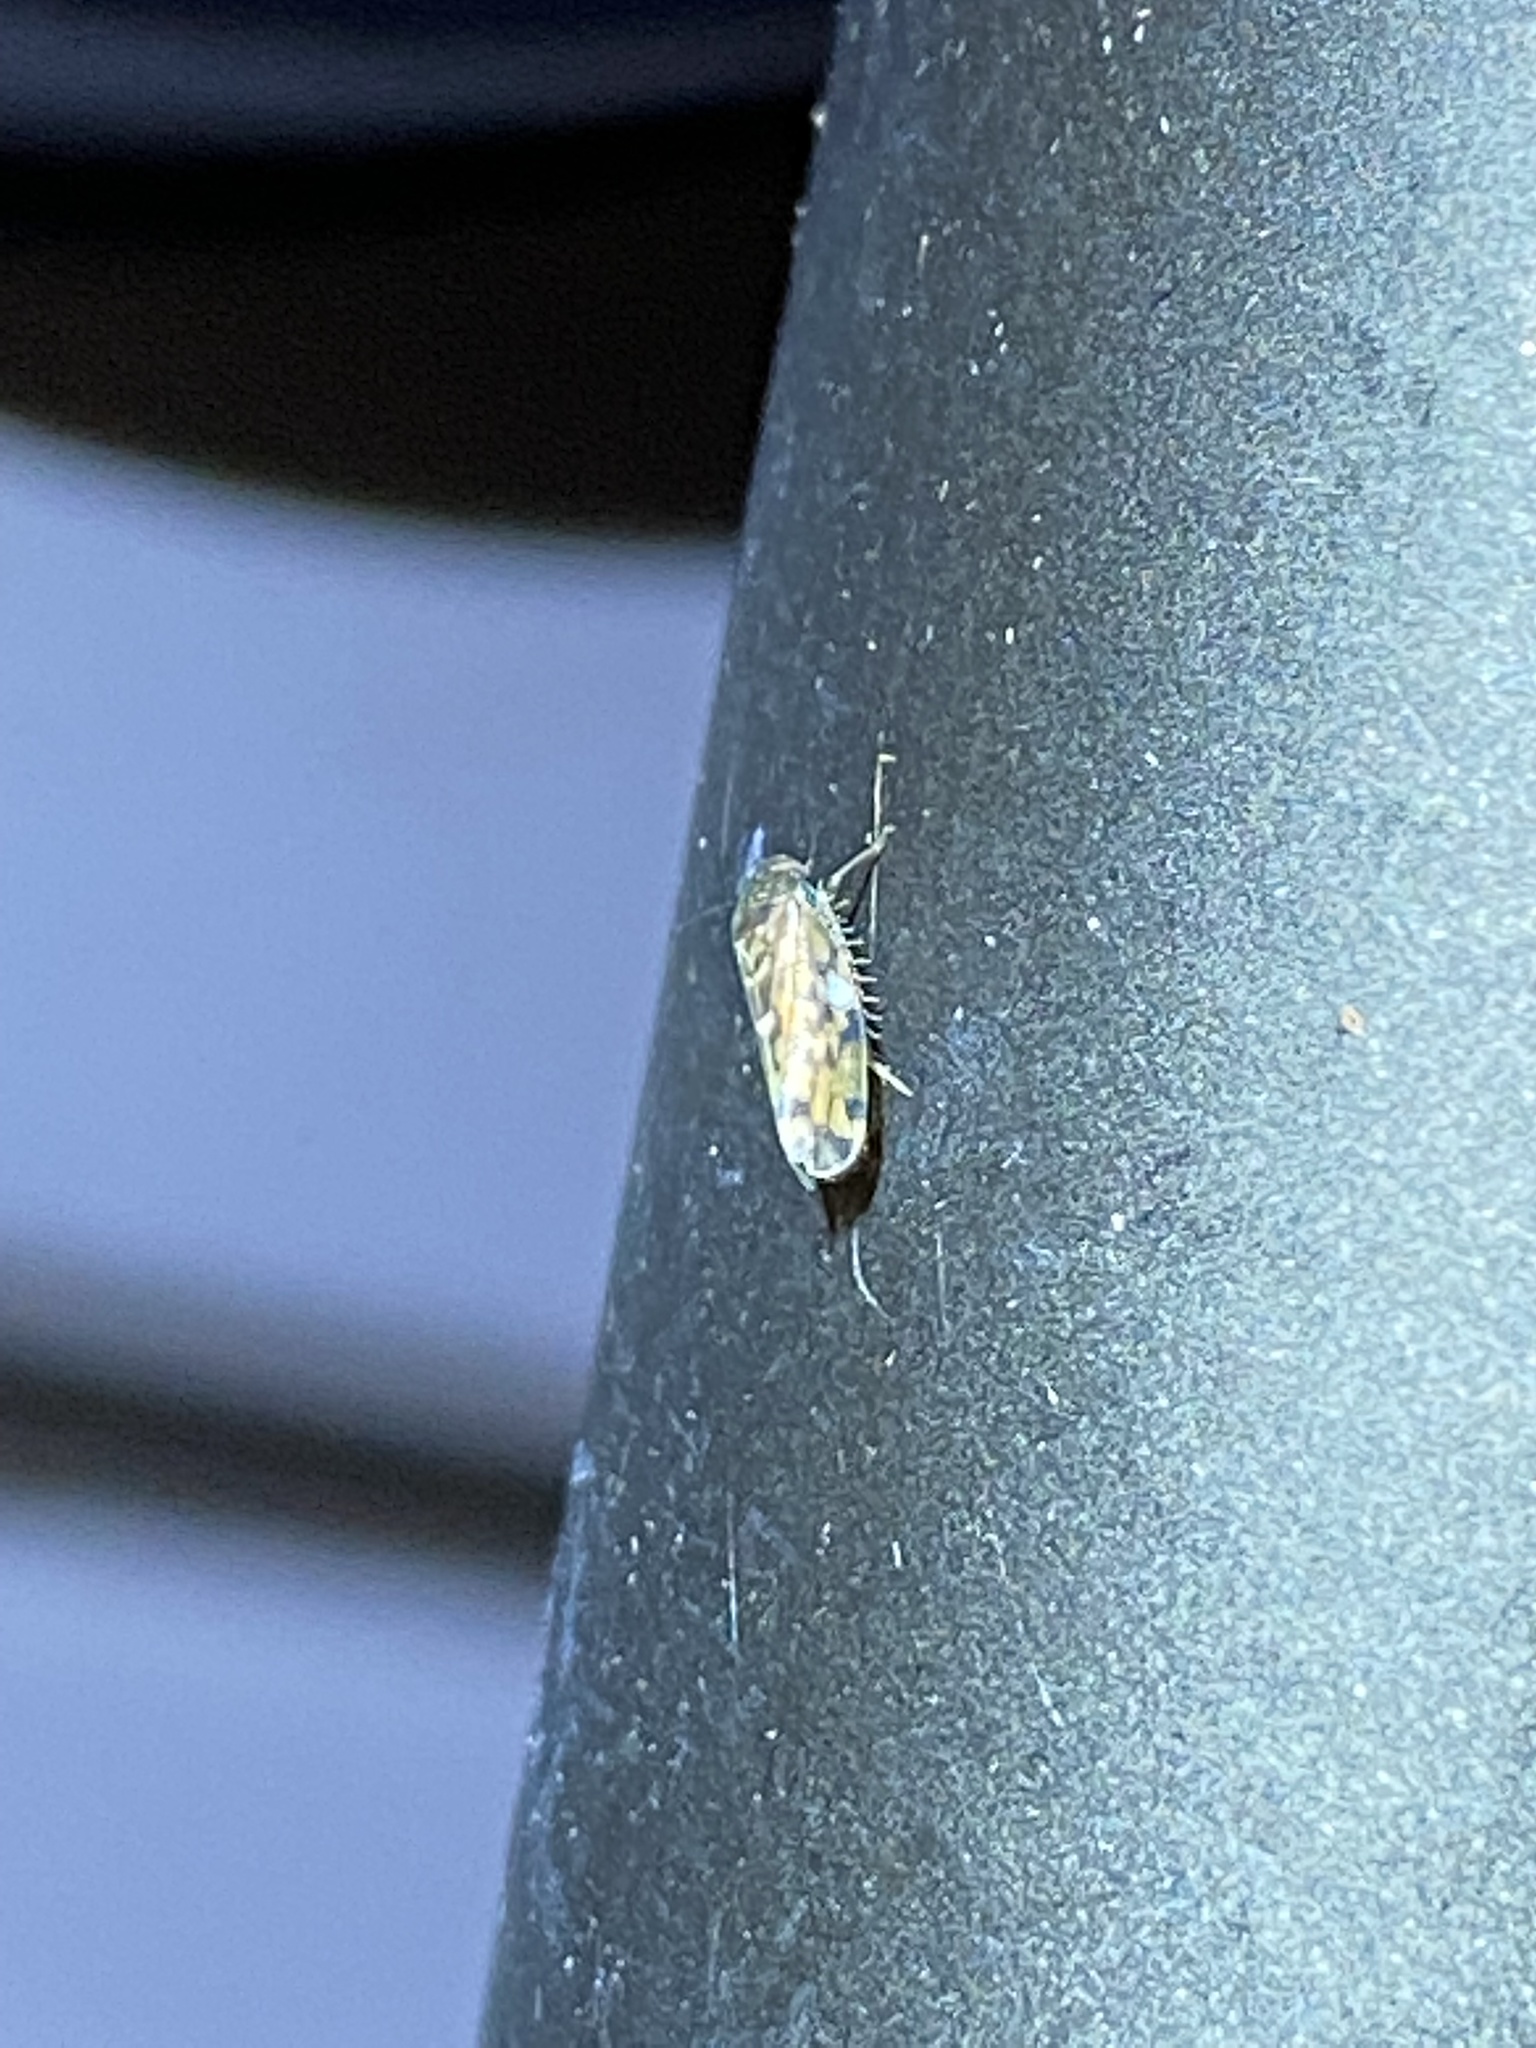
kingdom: Animalia
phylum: Arthropoda
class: Insecta
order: Hemiptera
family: Cicadellidae
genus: Xestocephalus
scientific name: Xestocephalus superbus
